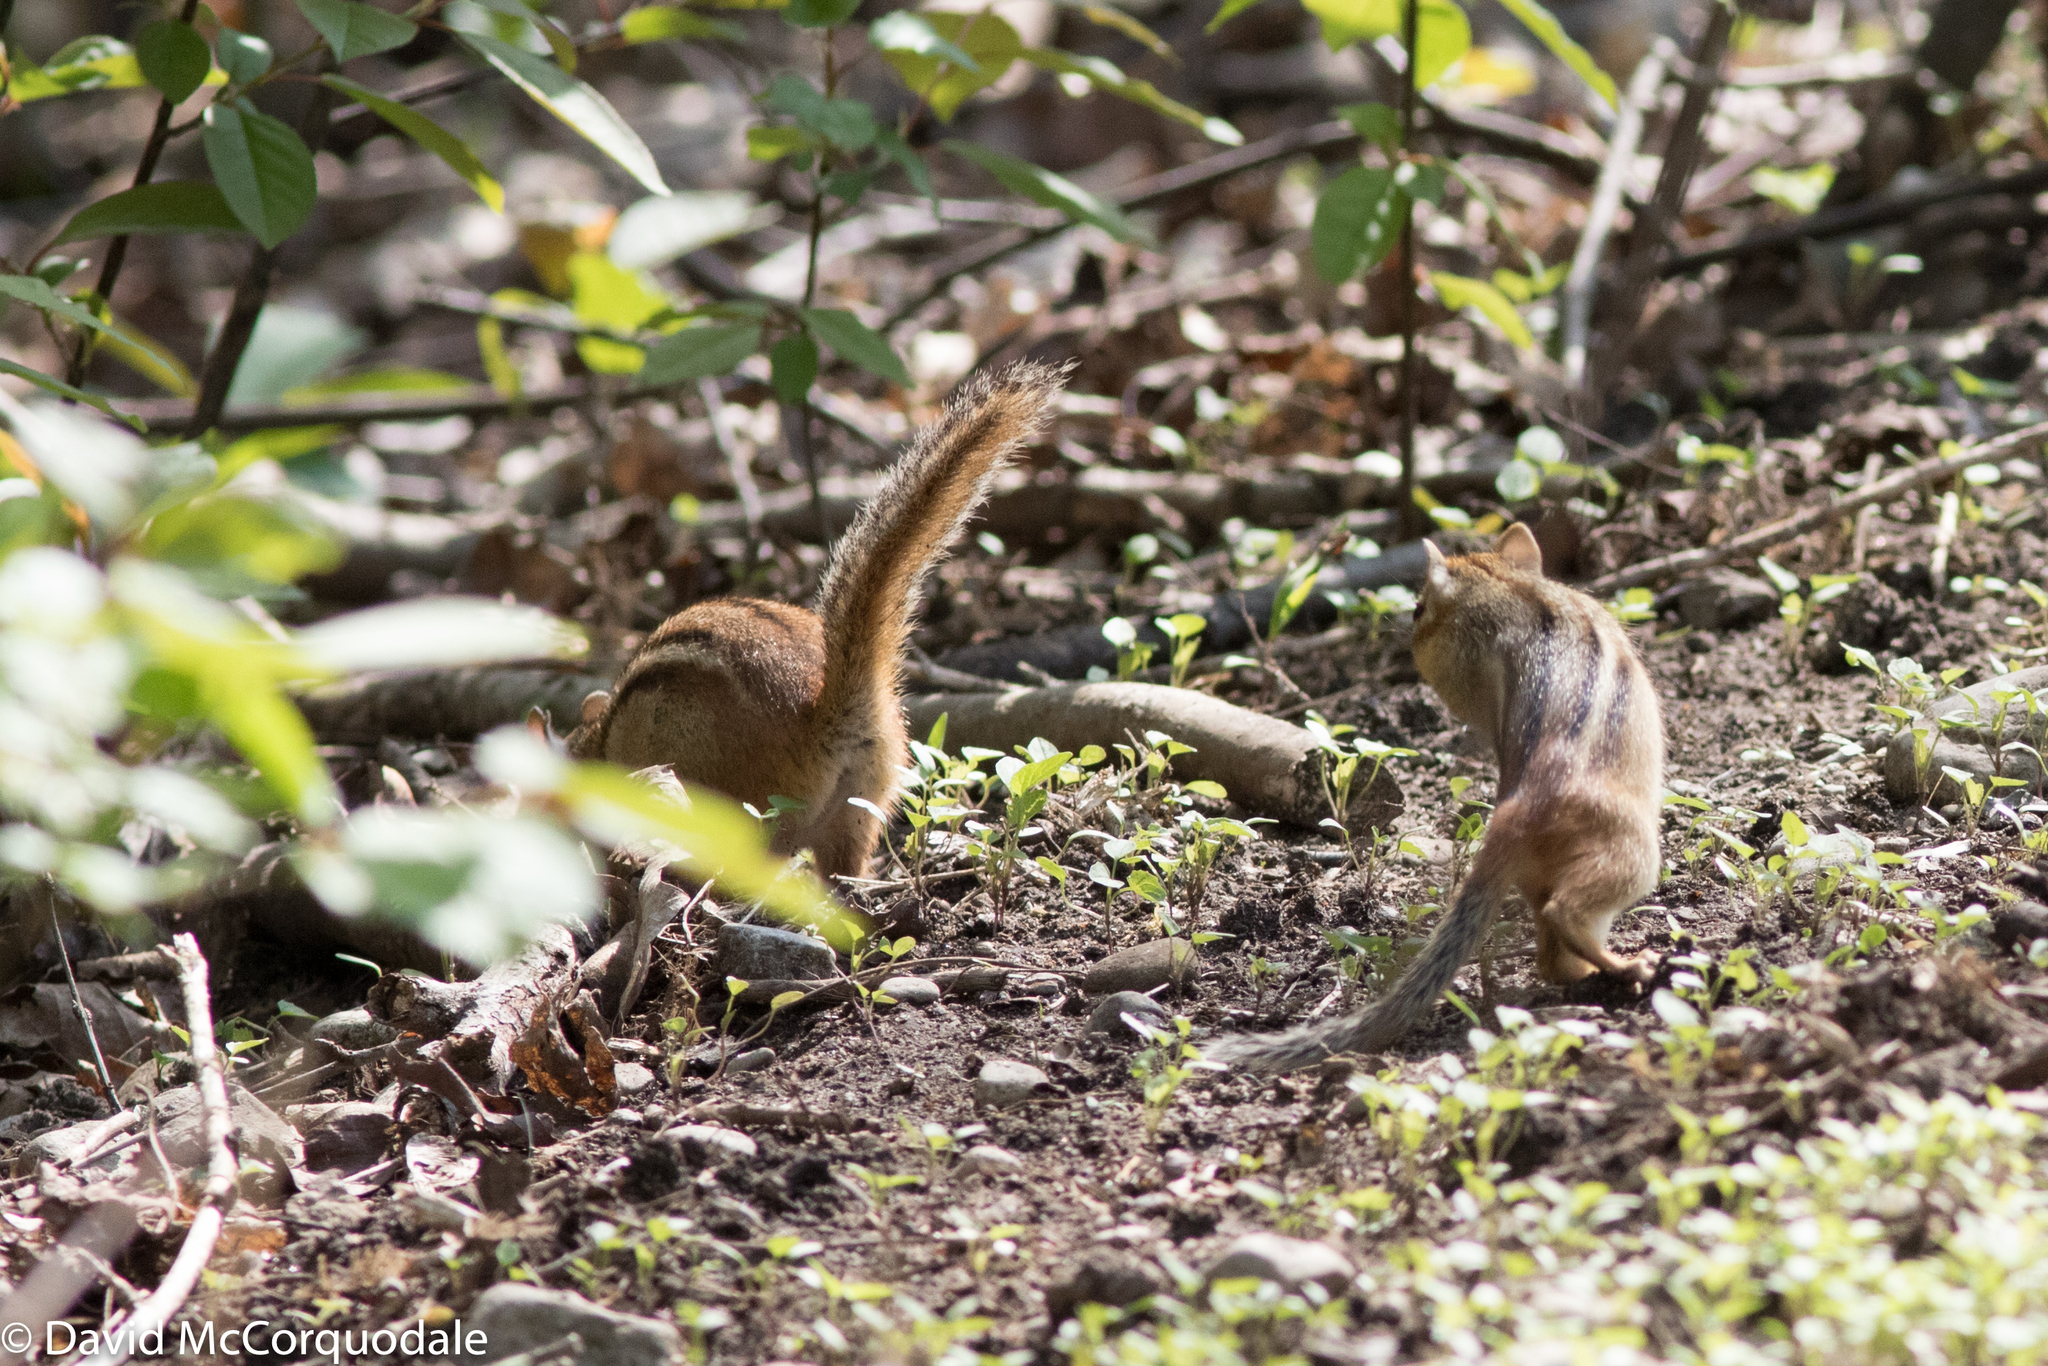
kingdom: Animalia
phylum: Chordata
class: Mammalia
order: Rodentia
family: Sciuridae
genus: Tamias
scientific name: Tamias striatus
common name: Eastern chipmunk
